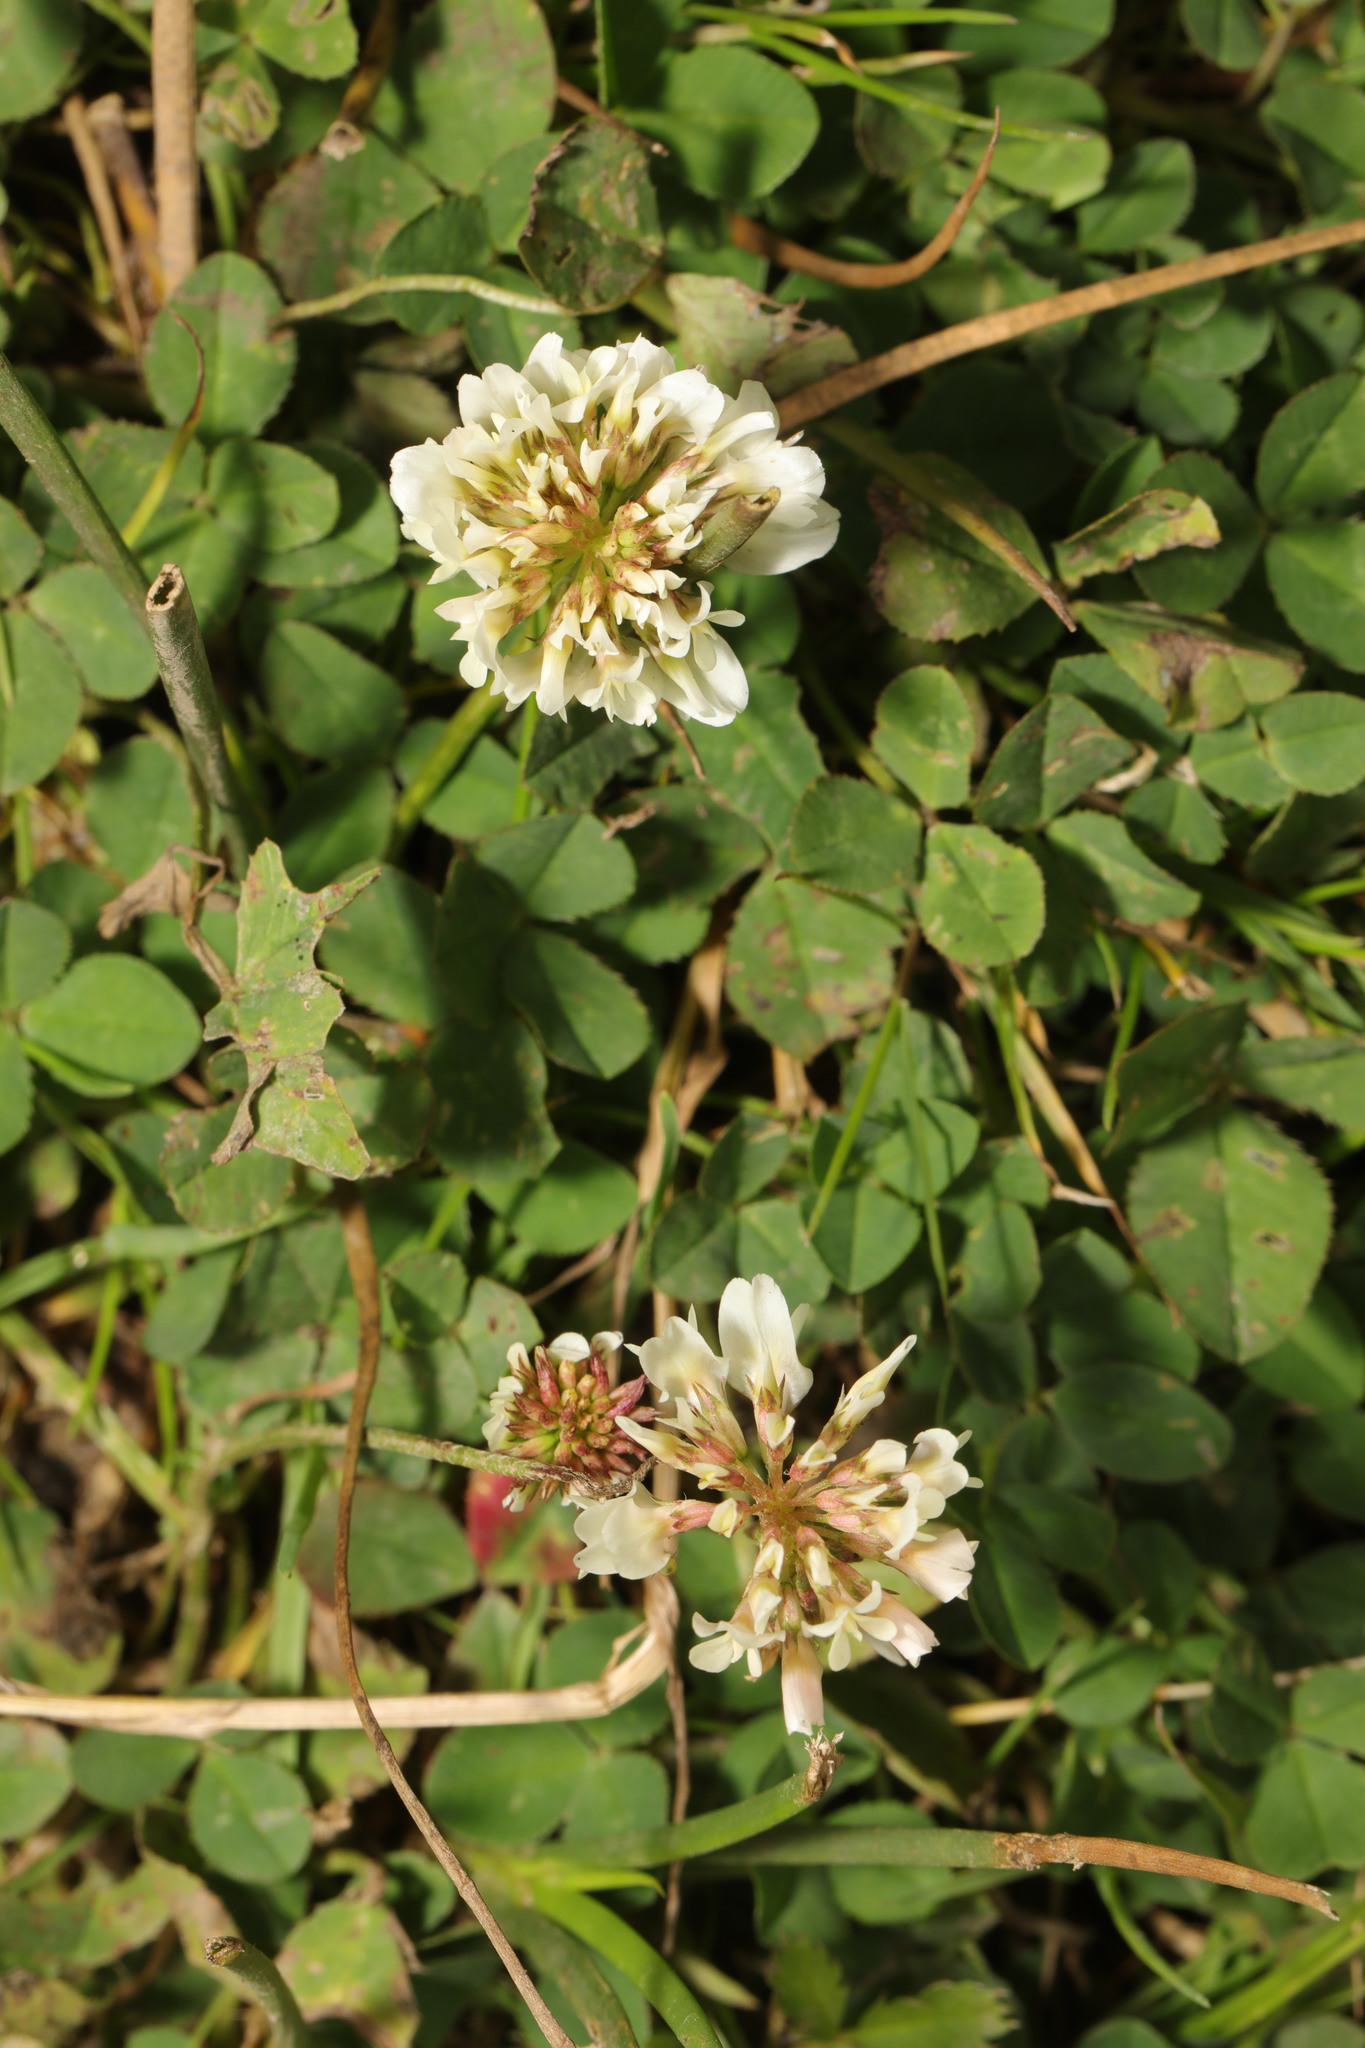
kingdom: Plantae
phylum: Tracheophyta
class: Magnoliopsida
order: Fabales
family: Fabaceae
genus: Trifolium
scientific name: Trifolium repens
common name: White clover
